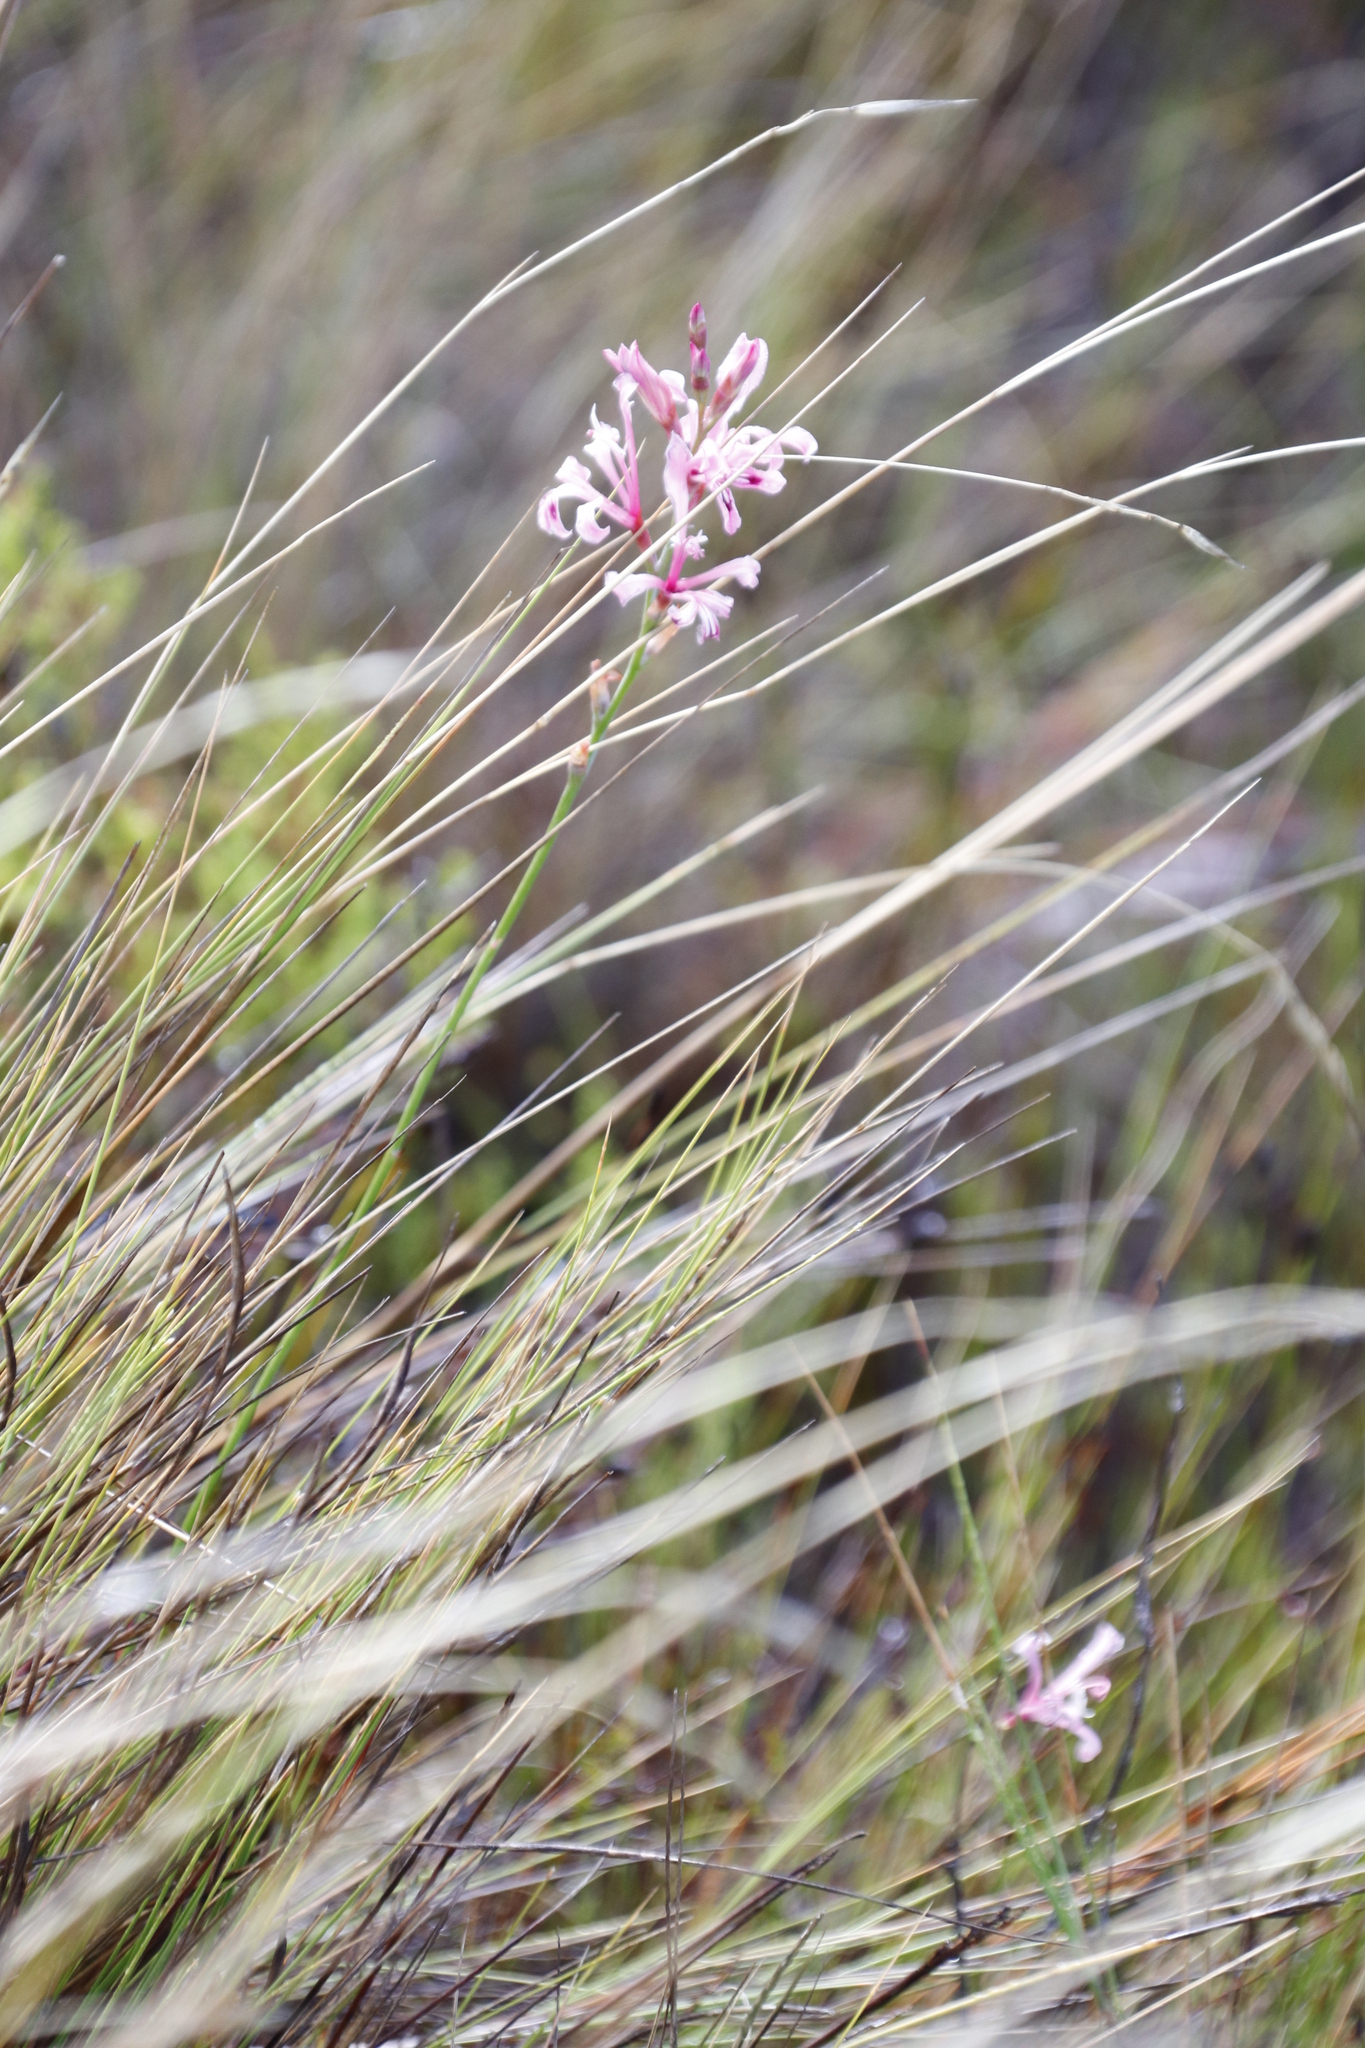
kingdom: Plantae
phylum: Tracheophyta
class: Liliopsida
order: Asparagales
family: Iridaceae
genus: Tritoniopsis
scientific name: Tritoniopsis lata
